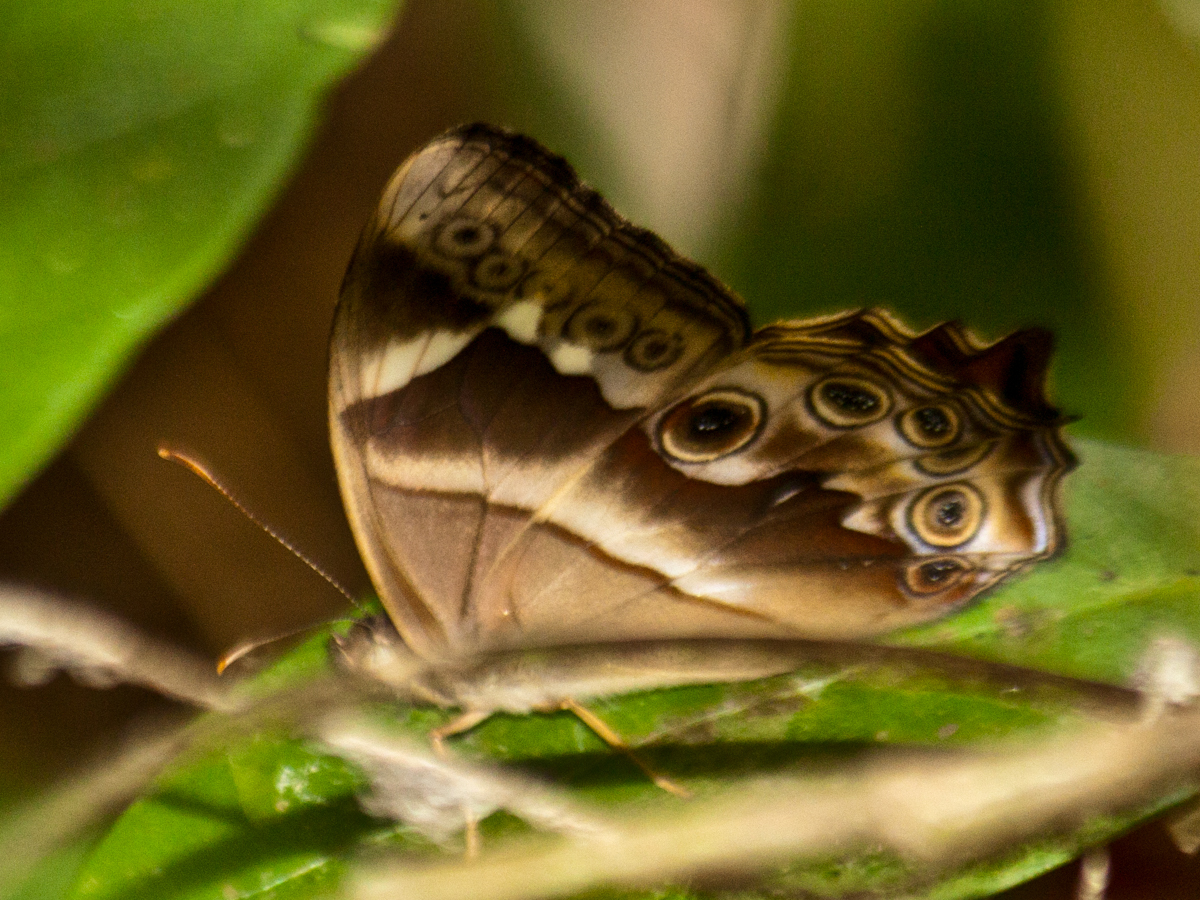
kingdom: Animalia
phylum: Arthropoda
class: Insecta
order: Lepidoptera
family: Nymphalidae
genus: Lethe
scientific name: Lethe mekara
